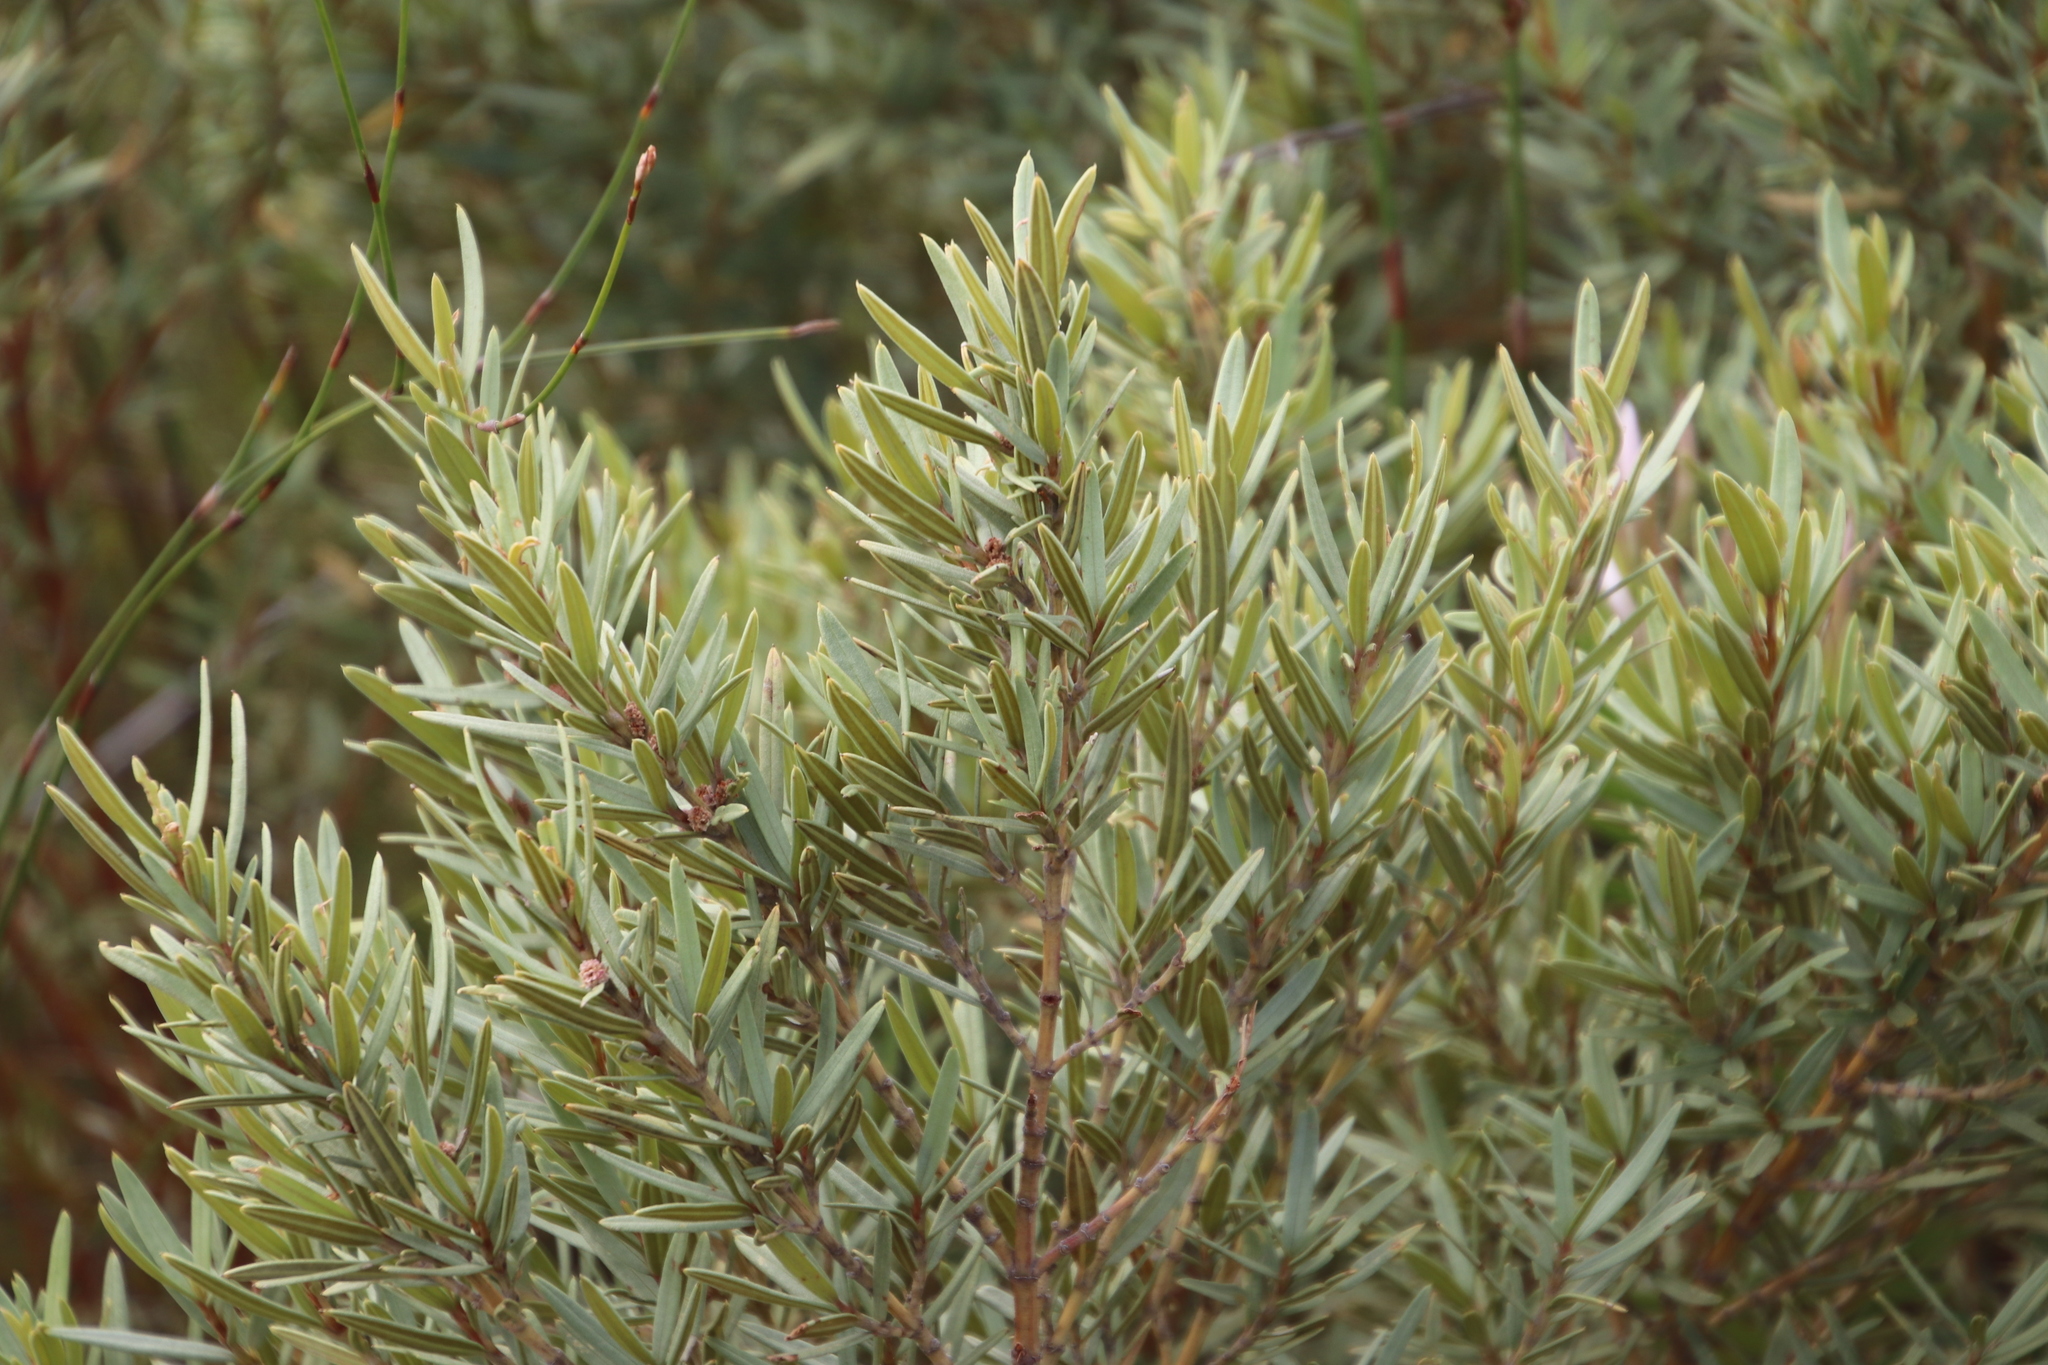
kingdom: Plantae
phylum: Tracheophyta
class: Magnoliopsida
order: Cornales
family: Grubbiaceae
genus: Grubbia
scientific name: Grubbia tomentosa
